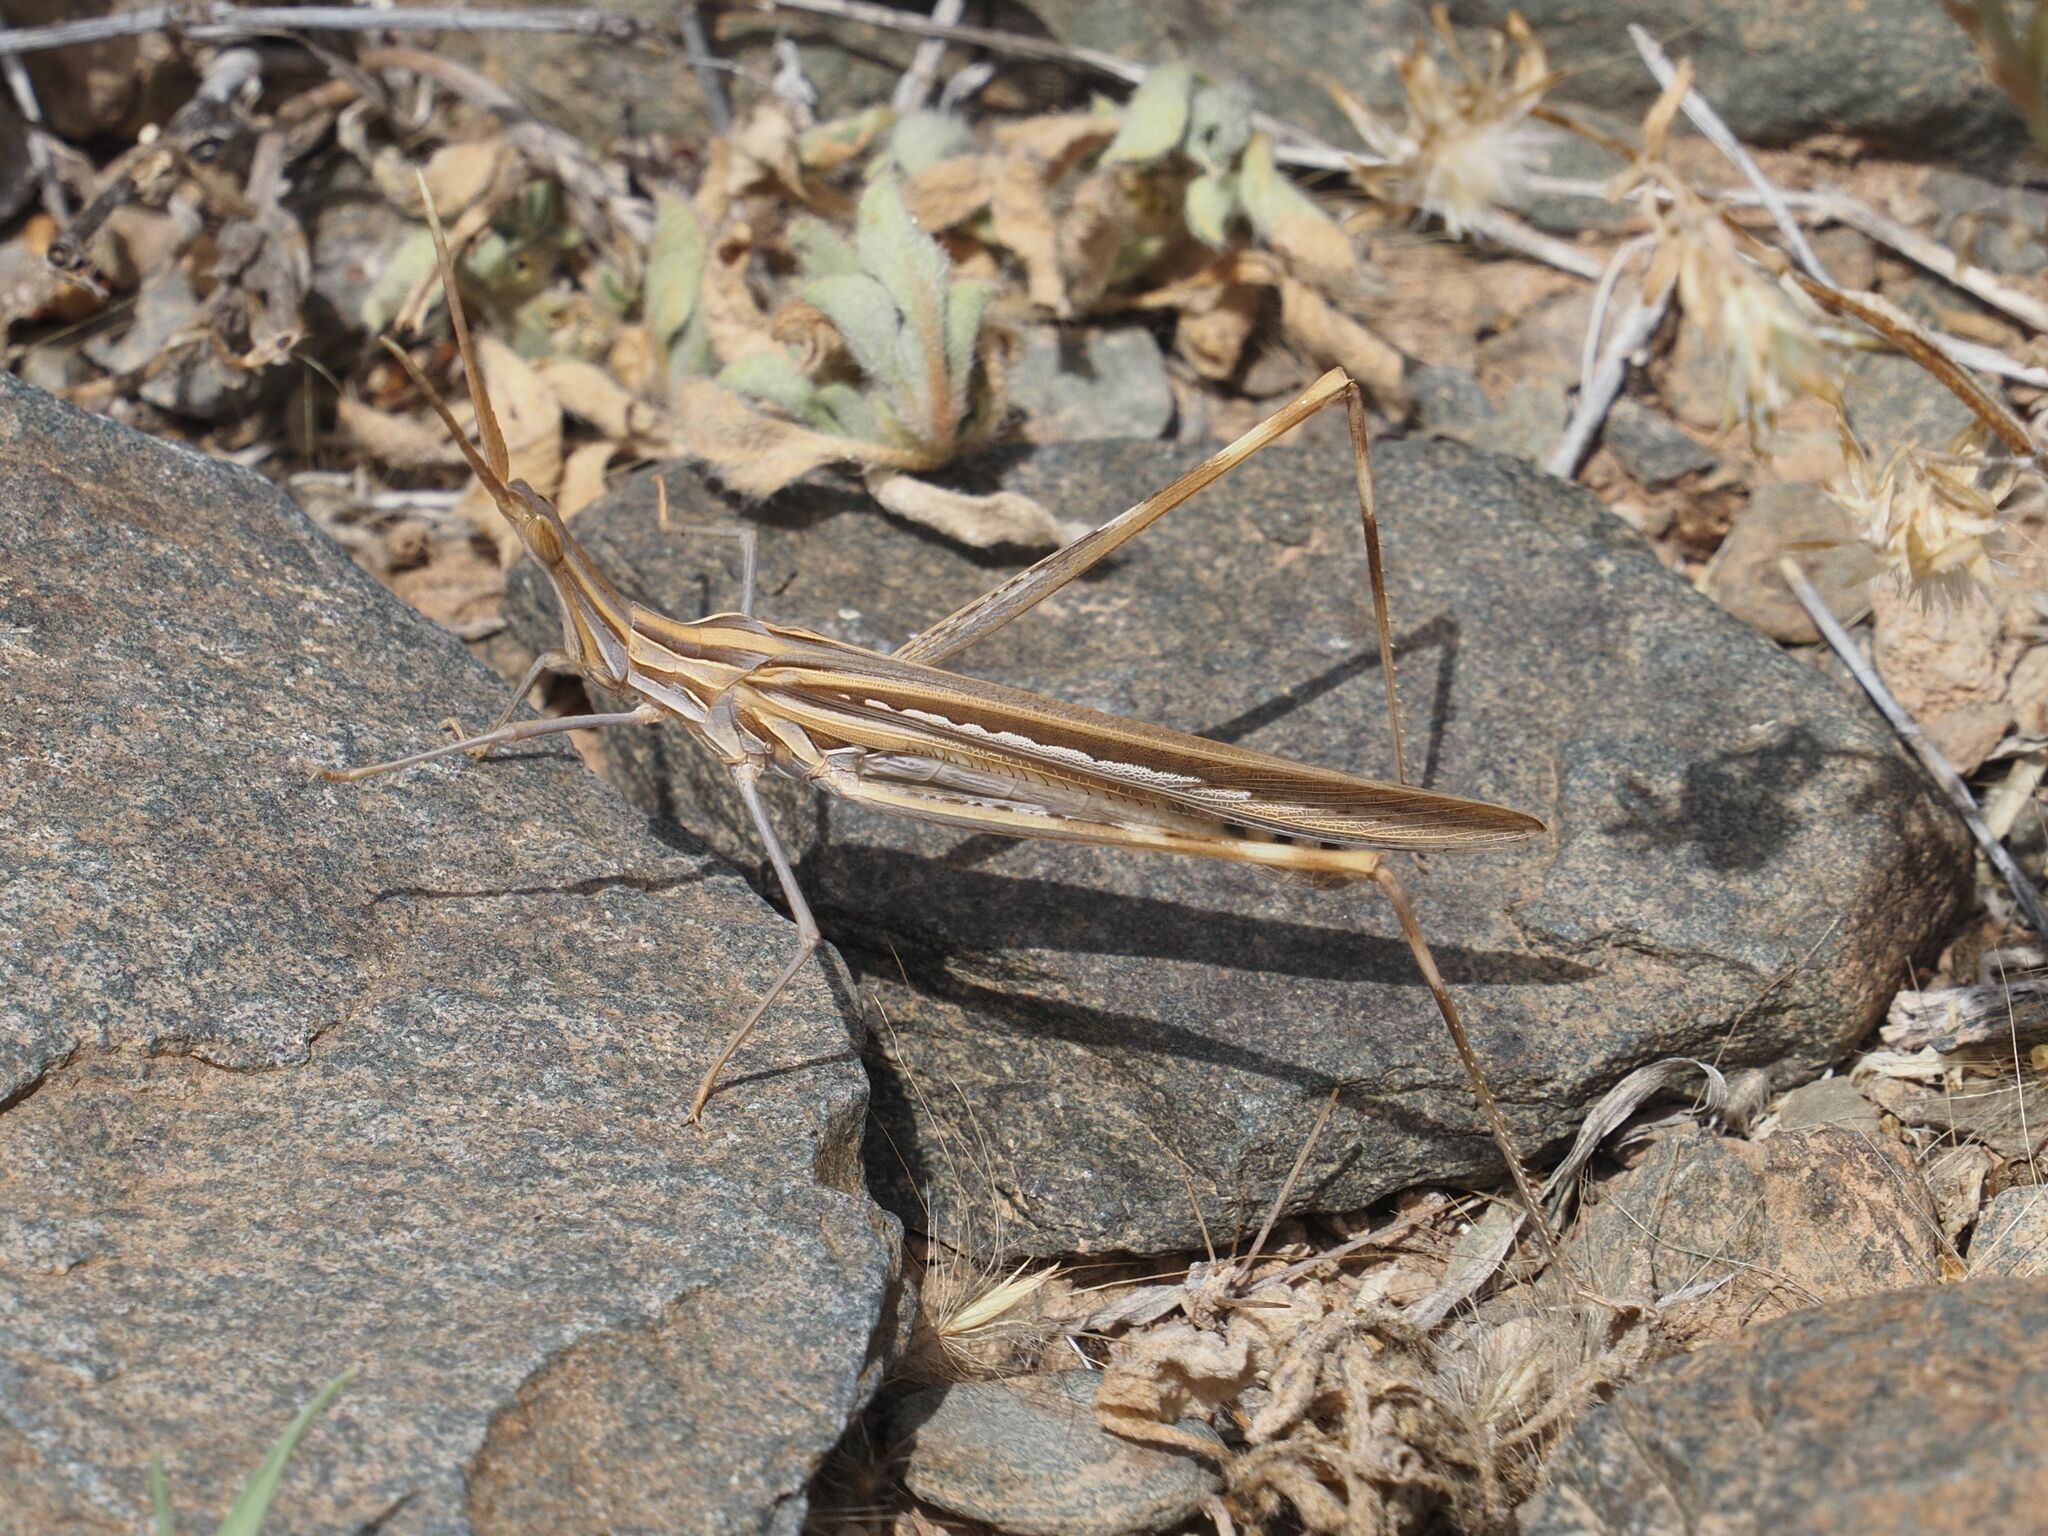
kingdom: Animalia
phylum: Arthropoda
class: Insecta
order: Orthoptera
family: Acrididae
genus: Truxalis
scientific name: Truxalis nasuta
